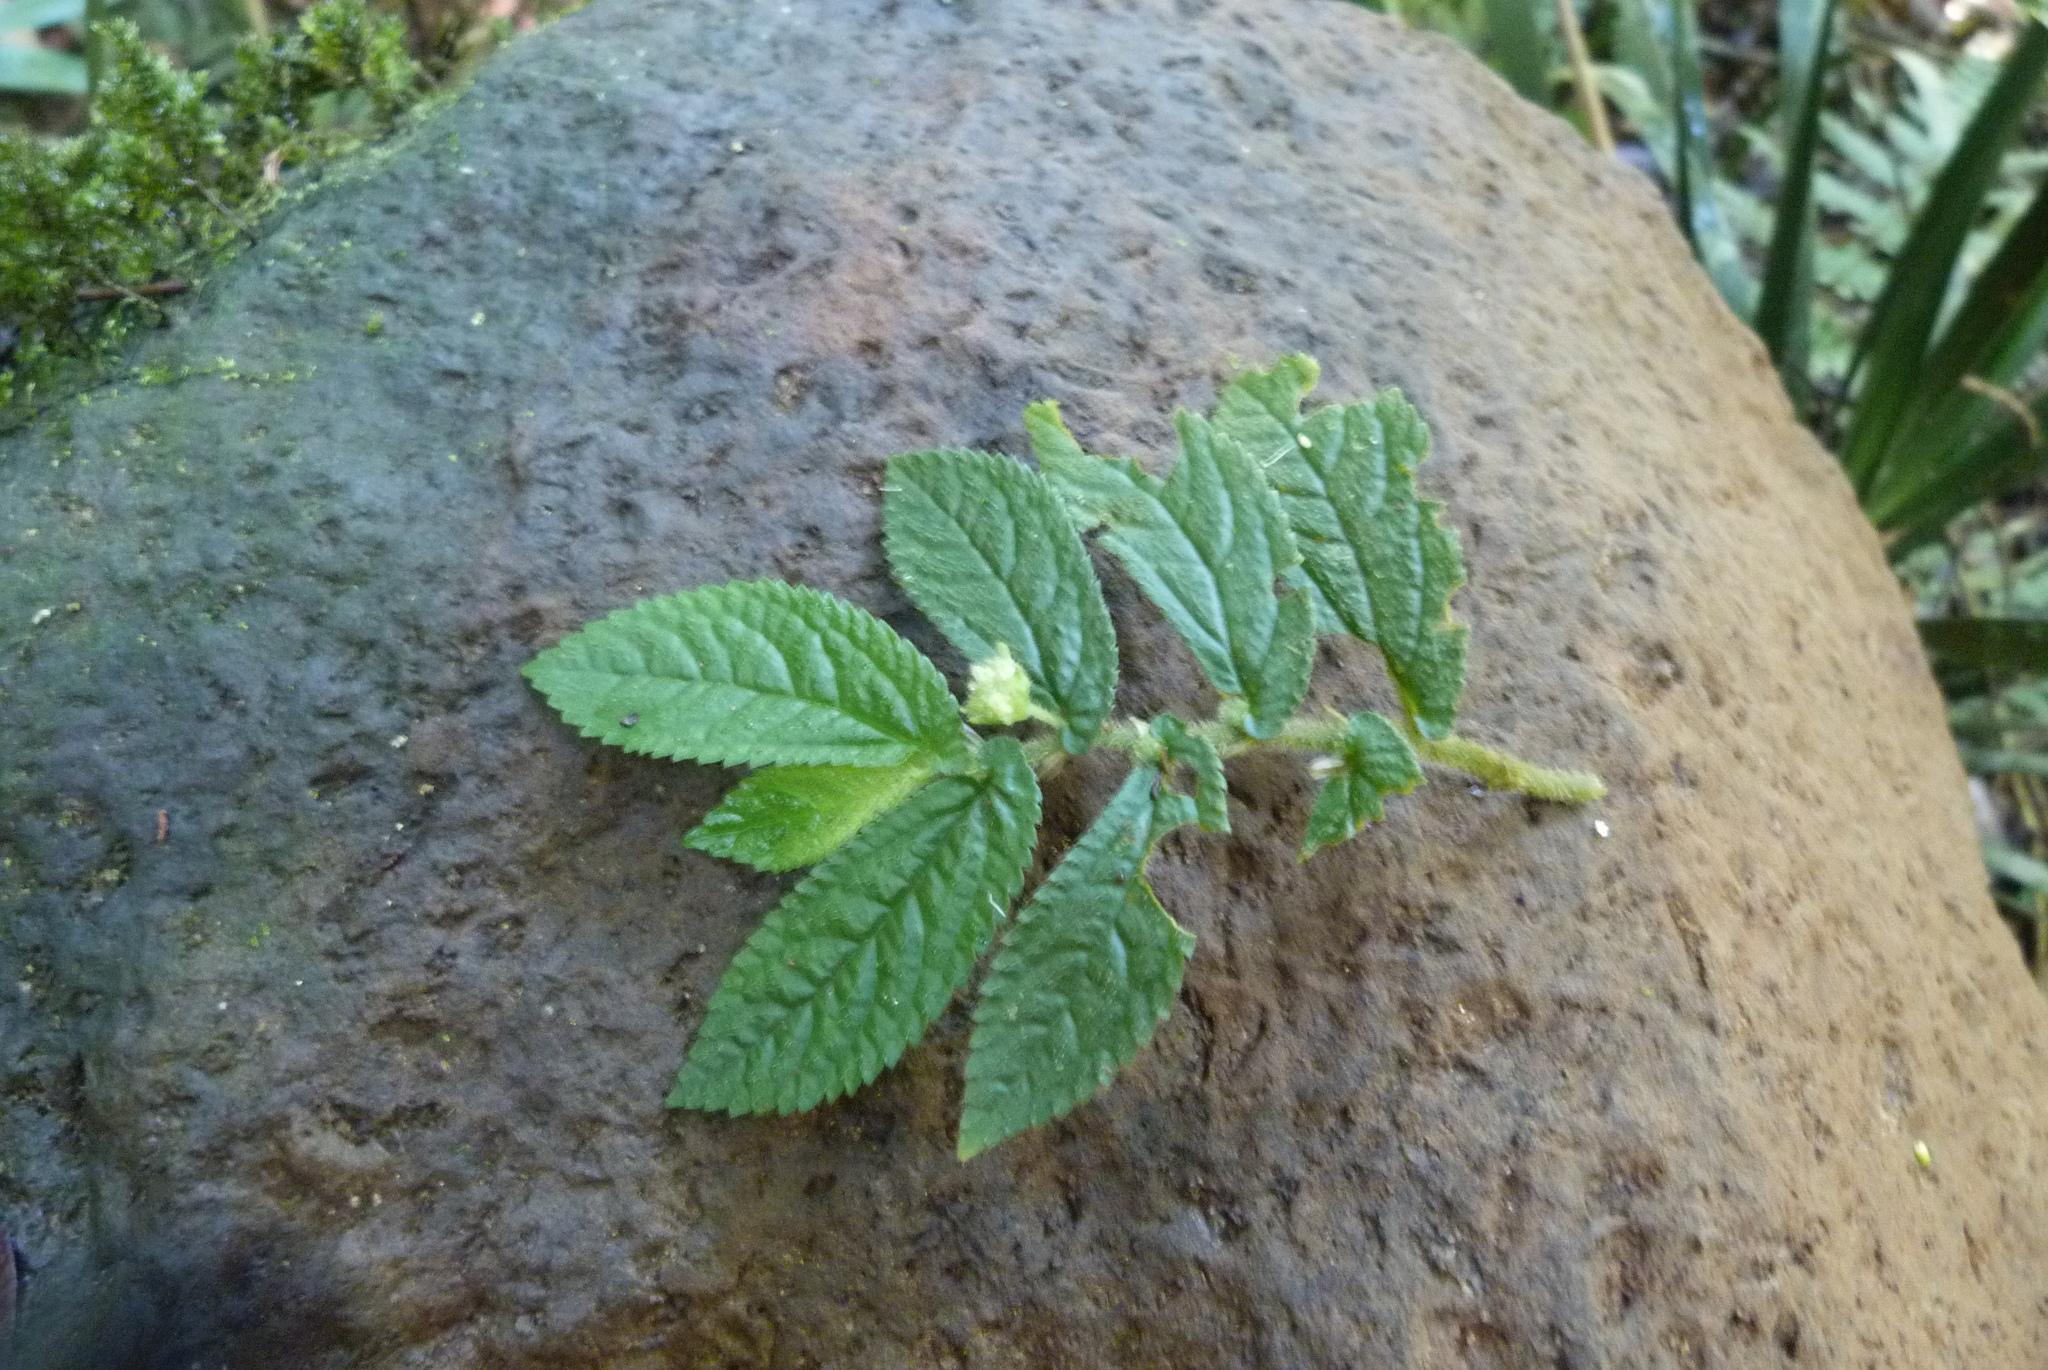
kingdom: Plantae
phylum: Tracheophyta
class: Magnoliopsida
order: Rosales
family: Urticaceae
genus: Elatostema
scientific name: Elatostema stipitatum
